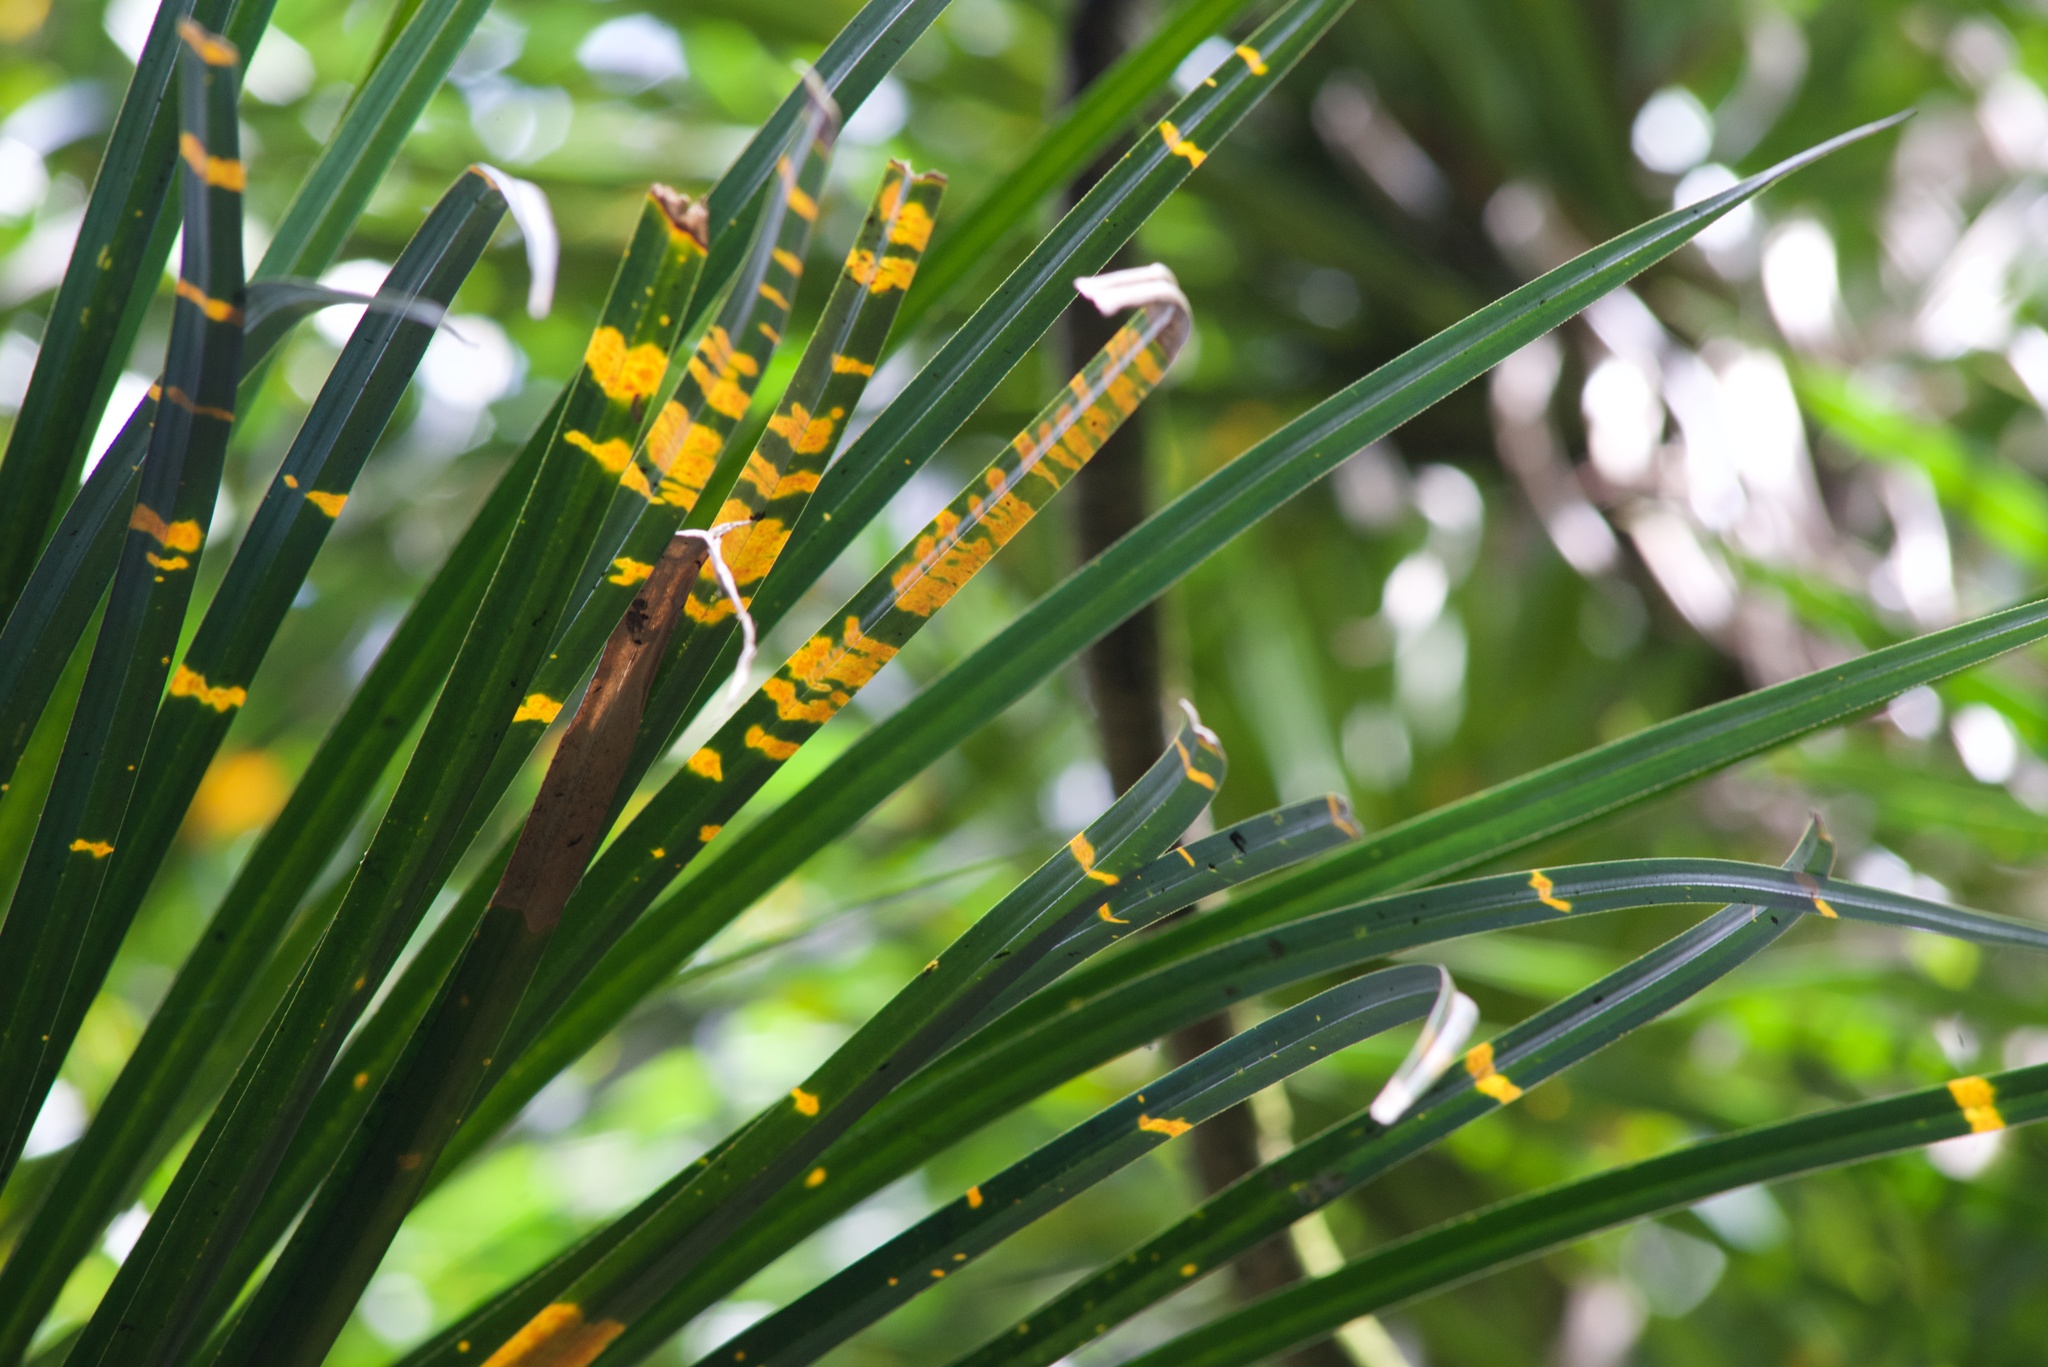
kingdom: Plantae
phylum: Tracheophyta
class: Liliopsida
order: Pandanales
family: Pandanaceae
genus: Freycinetia
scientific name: Freycinetia banksii
